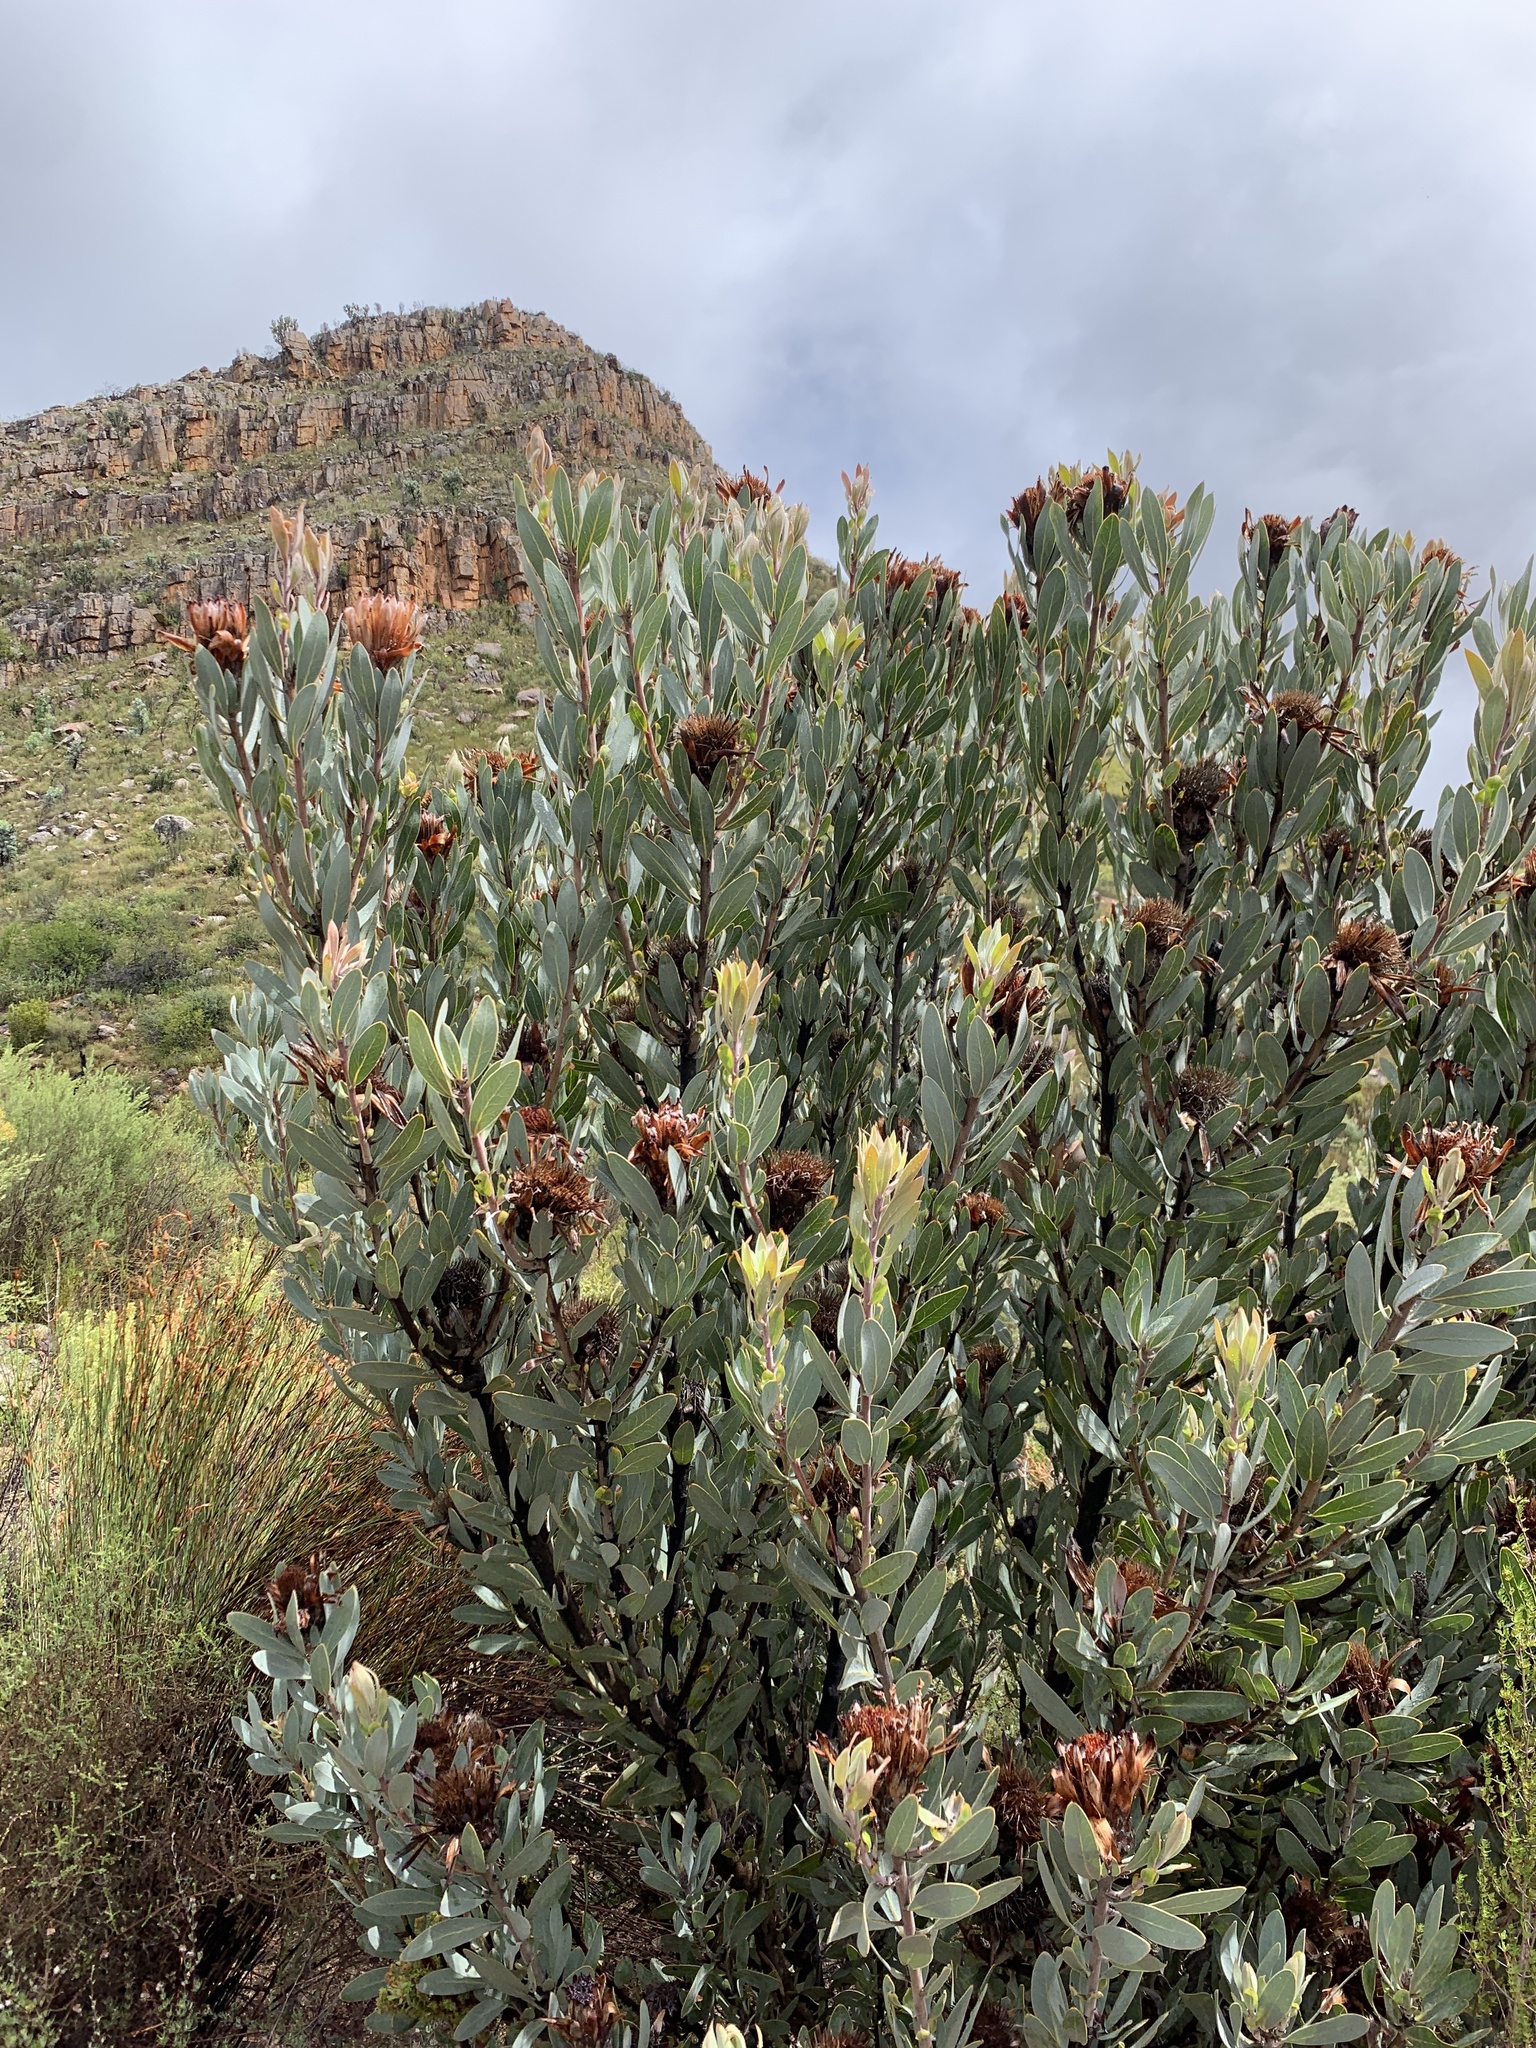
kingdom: Plantae
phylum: Tracheophyta
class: Magnoliopsida
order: Proteales
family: Proteaceae
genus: Protea
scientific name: Protea laurifolia
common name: Grey-leaf sugarbsh
